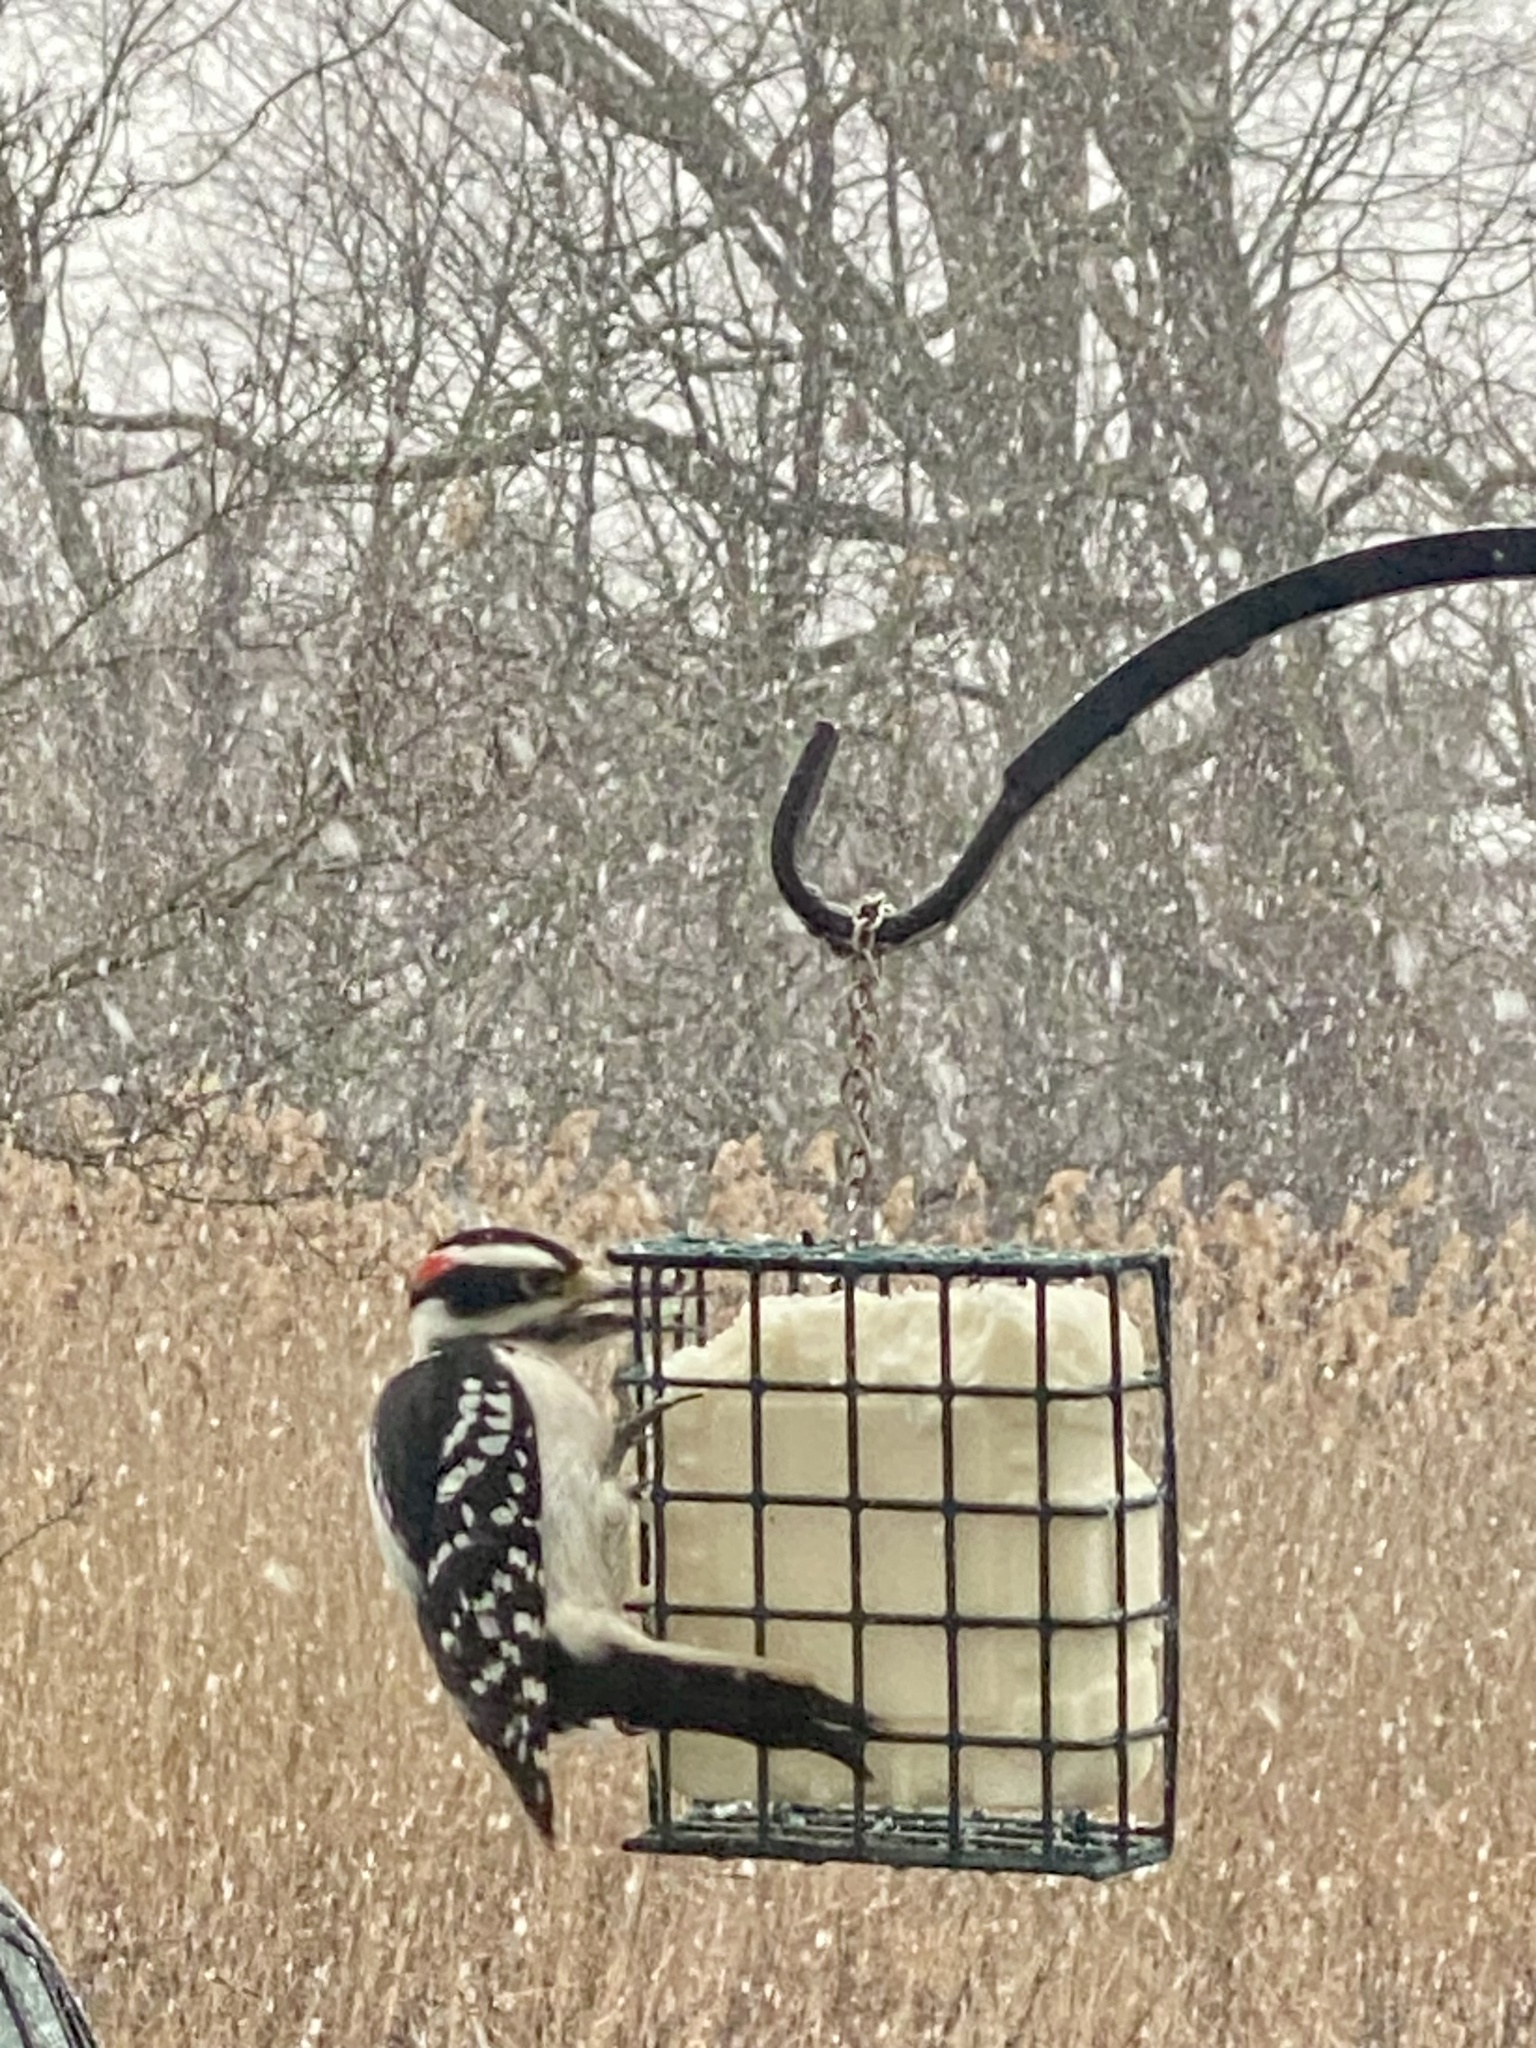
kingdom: Animalia
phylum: Chordata
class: Aves
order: Piciformes
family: Picidae
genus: Leuconotopicus
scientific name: Leuconotopicus villosus
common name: Hairy woodpecker
